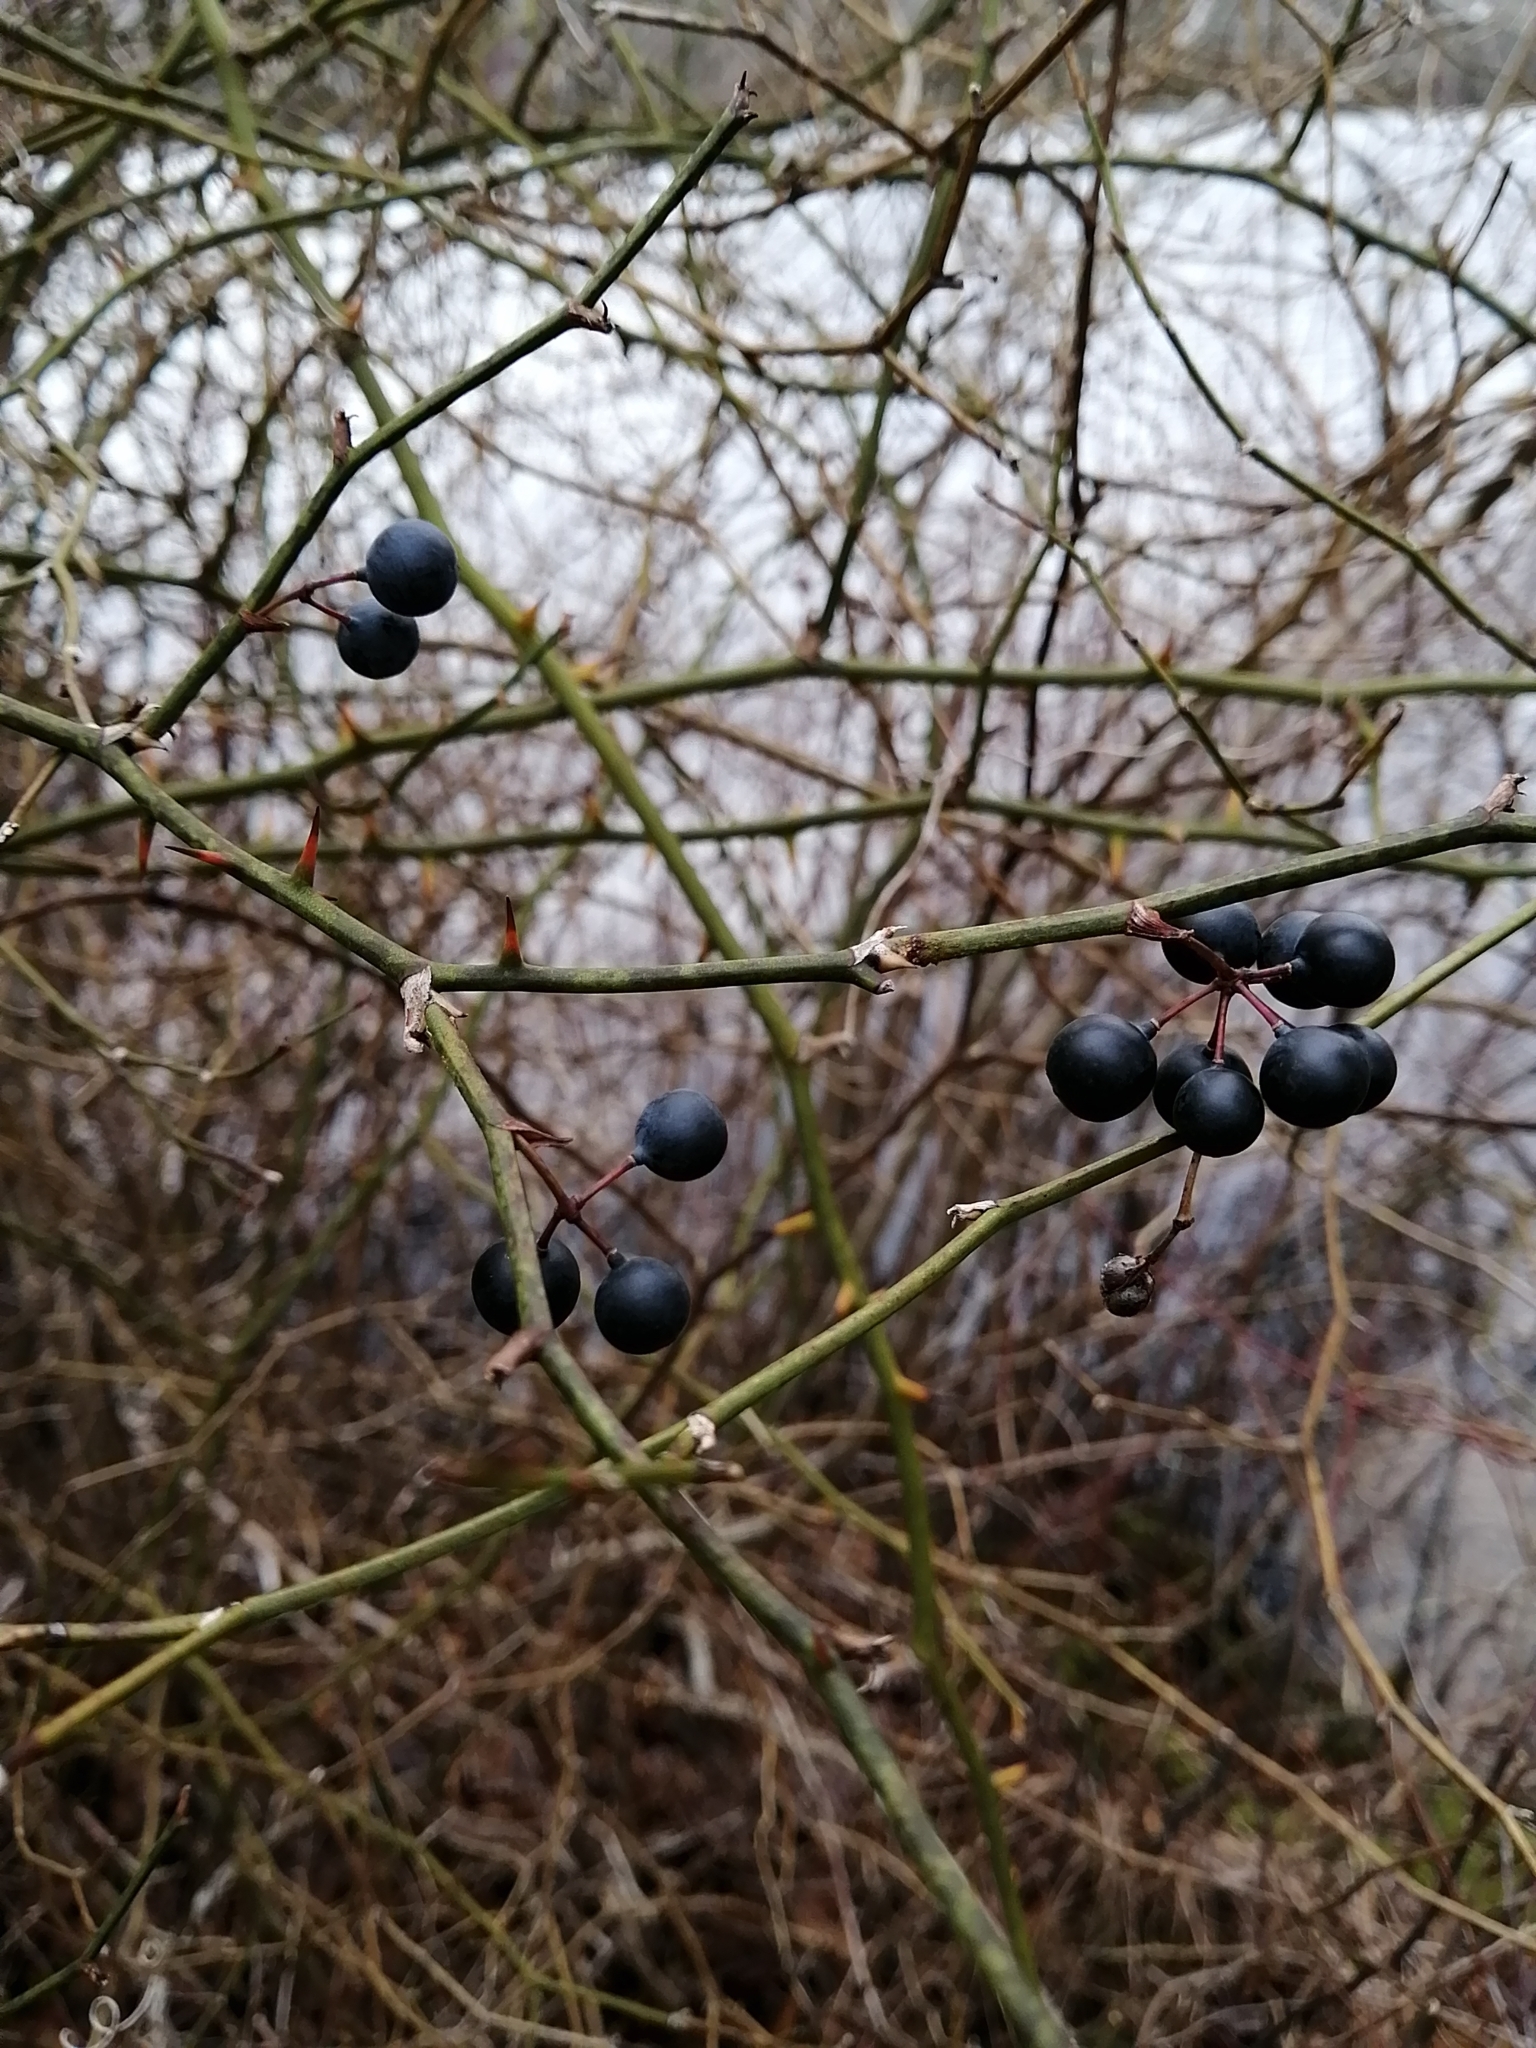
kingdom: Plantae
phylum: Tracheophyta
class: Liliopsida
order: Liliales
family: Smilacaceae
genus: Smilax
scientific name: Smilax rotundifolia
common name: Bullbriar
